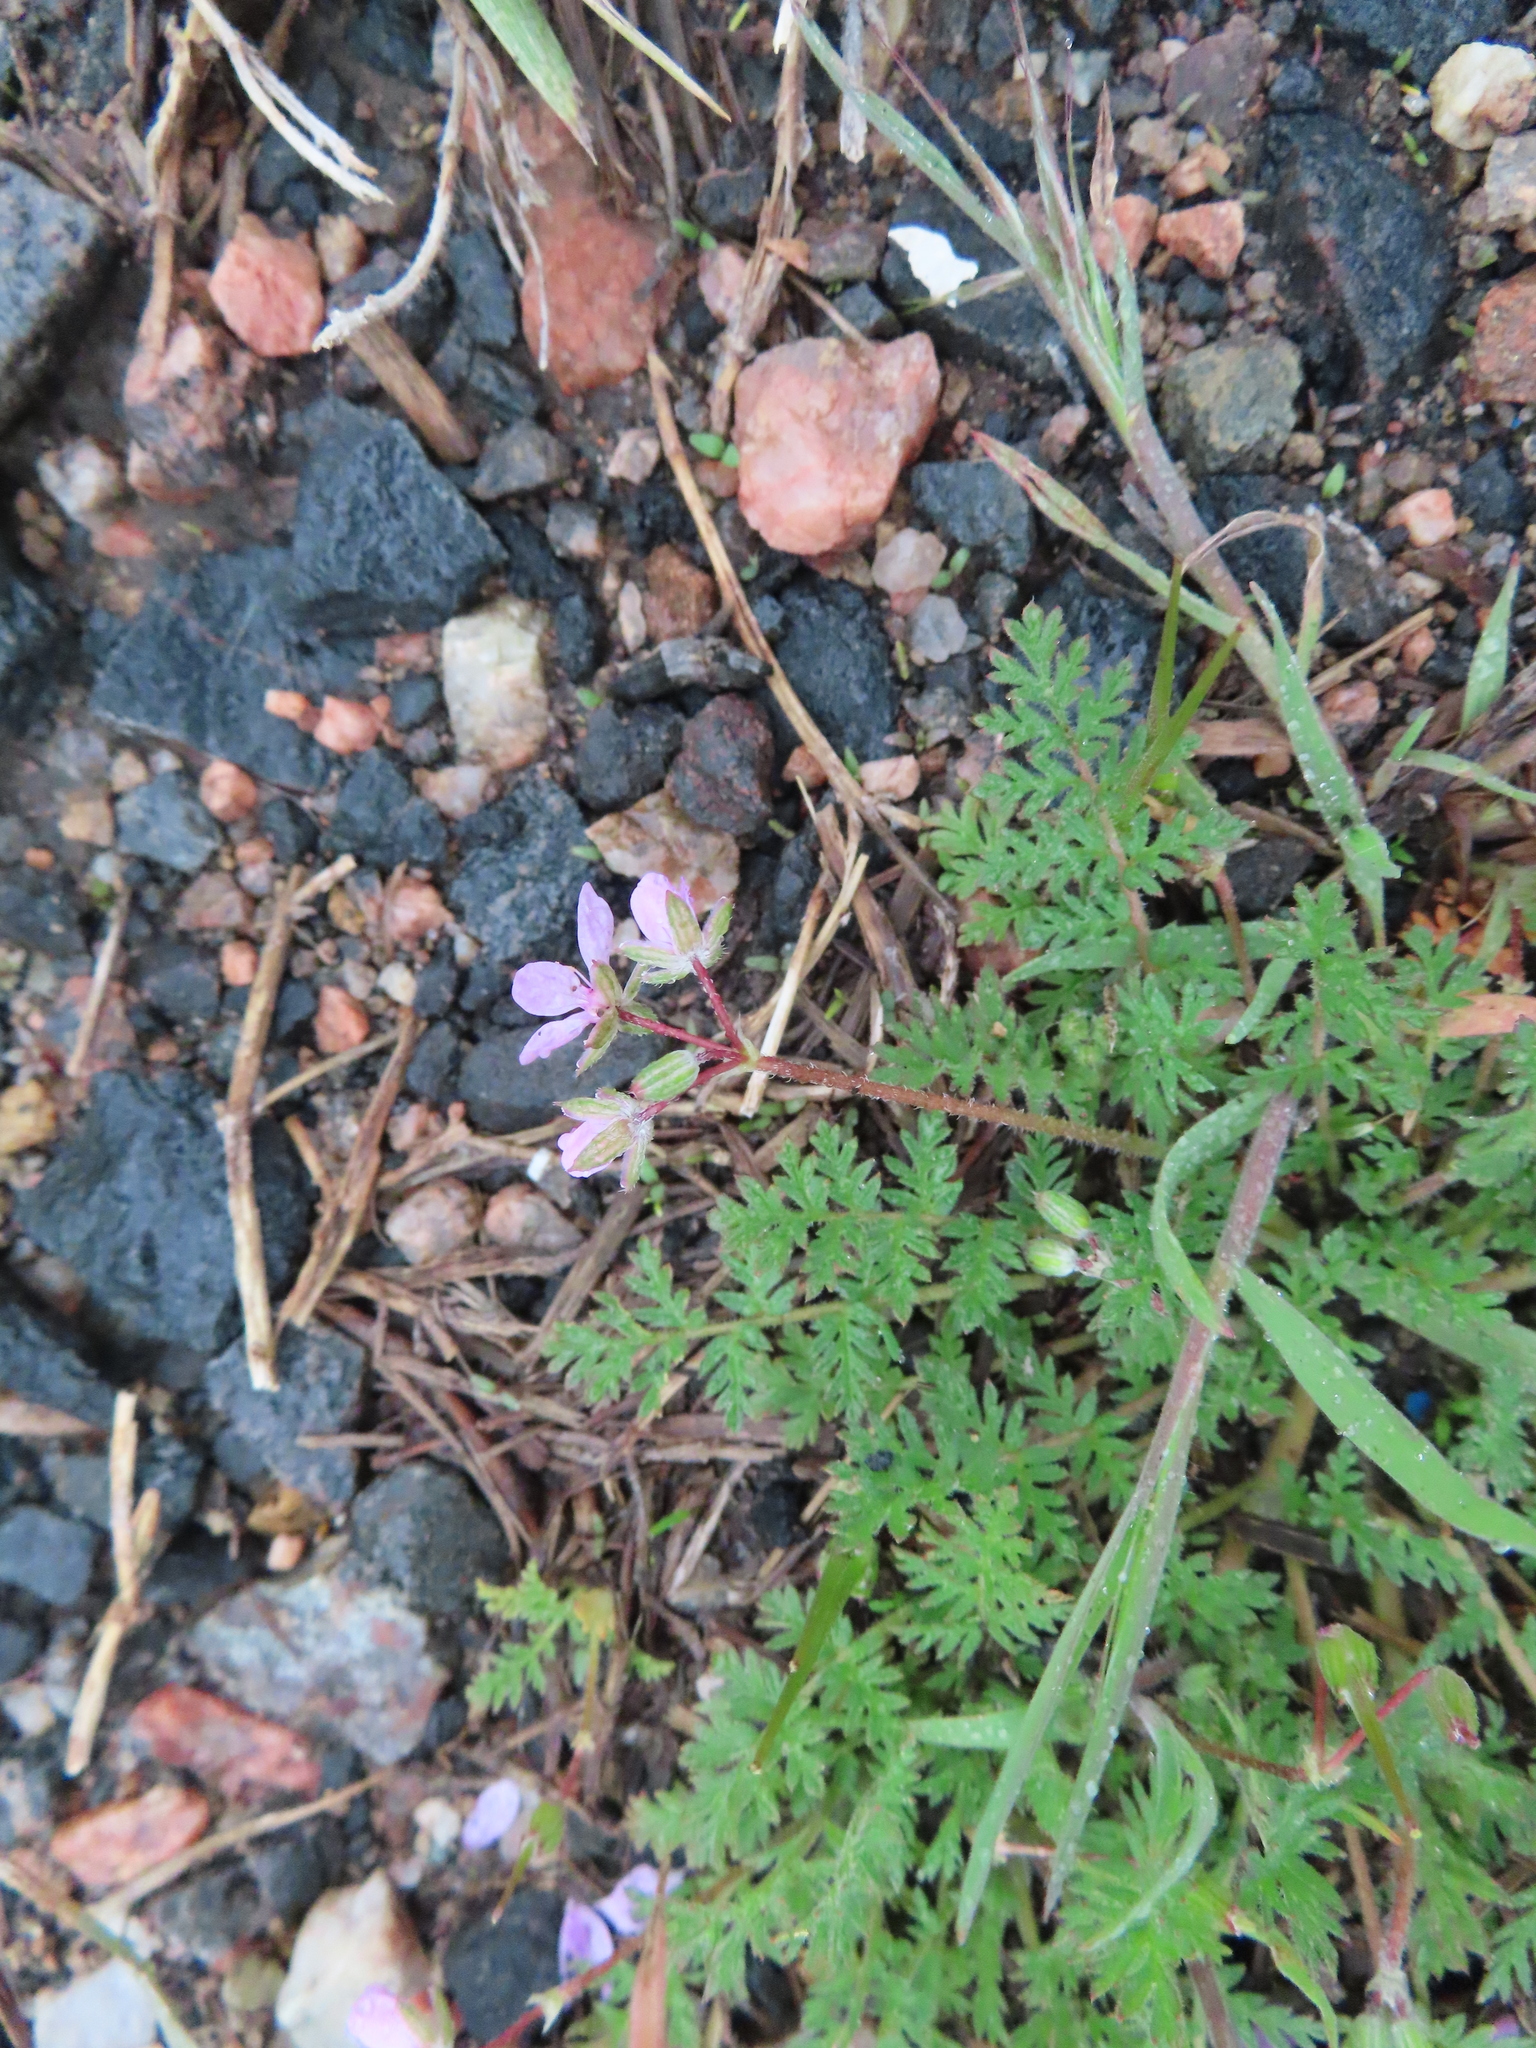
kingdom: Plantae
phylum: Tracheophyta
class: Magnoliopsida
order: Geraniales
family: Geraniaceae
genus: Erodium
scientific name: Erodium cicutarium
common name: Common stork's-bill
